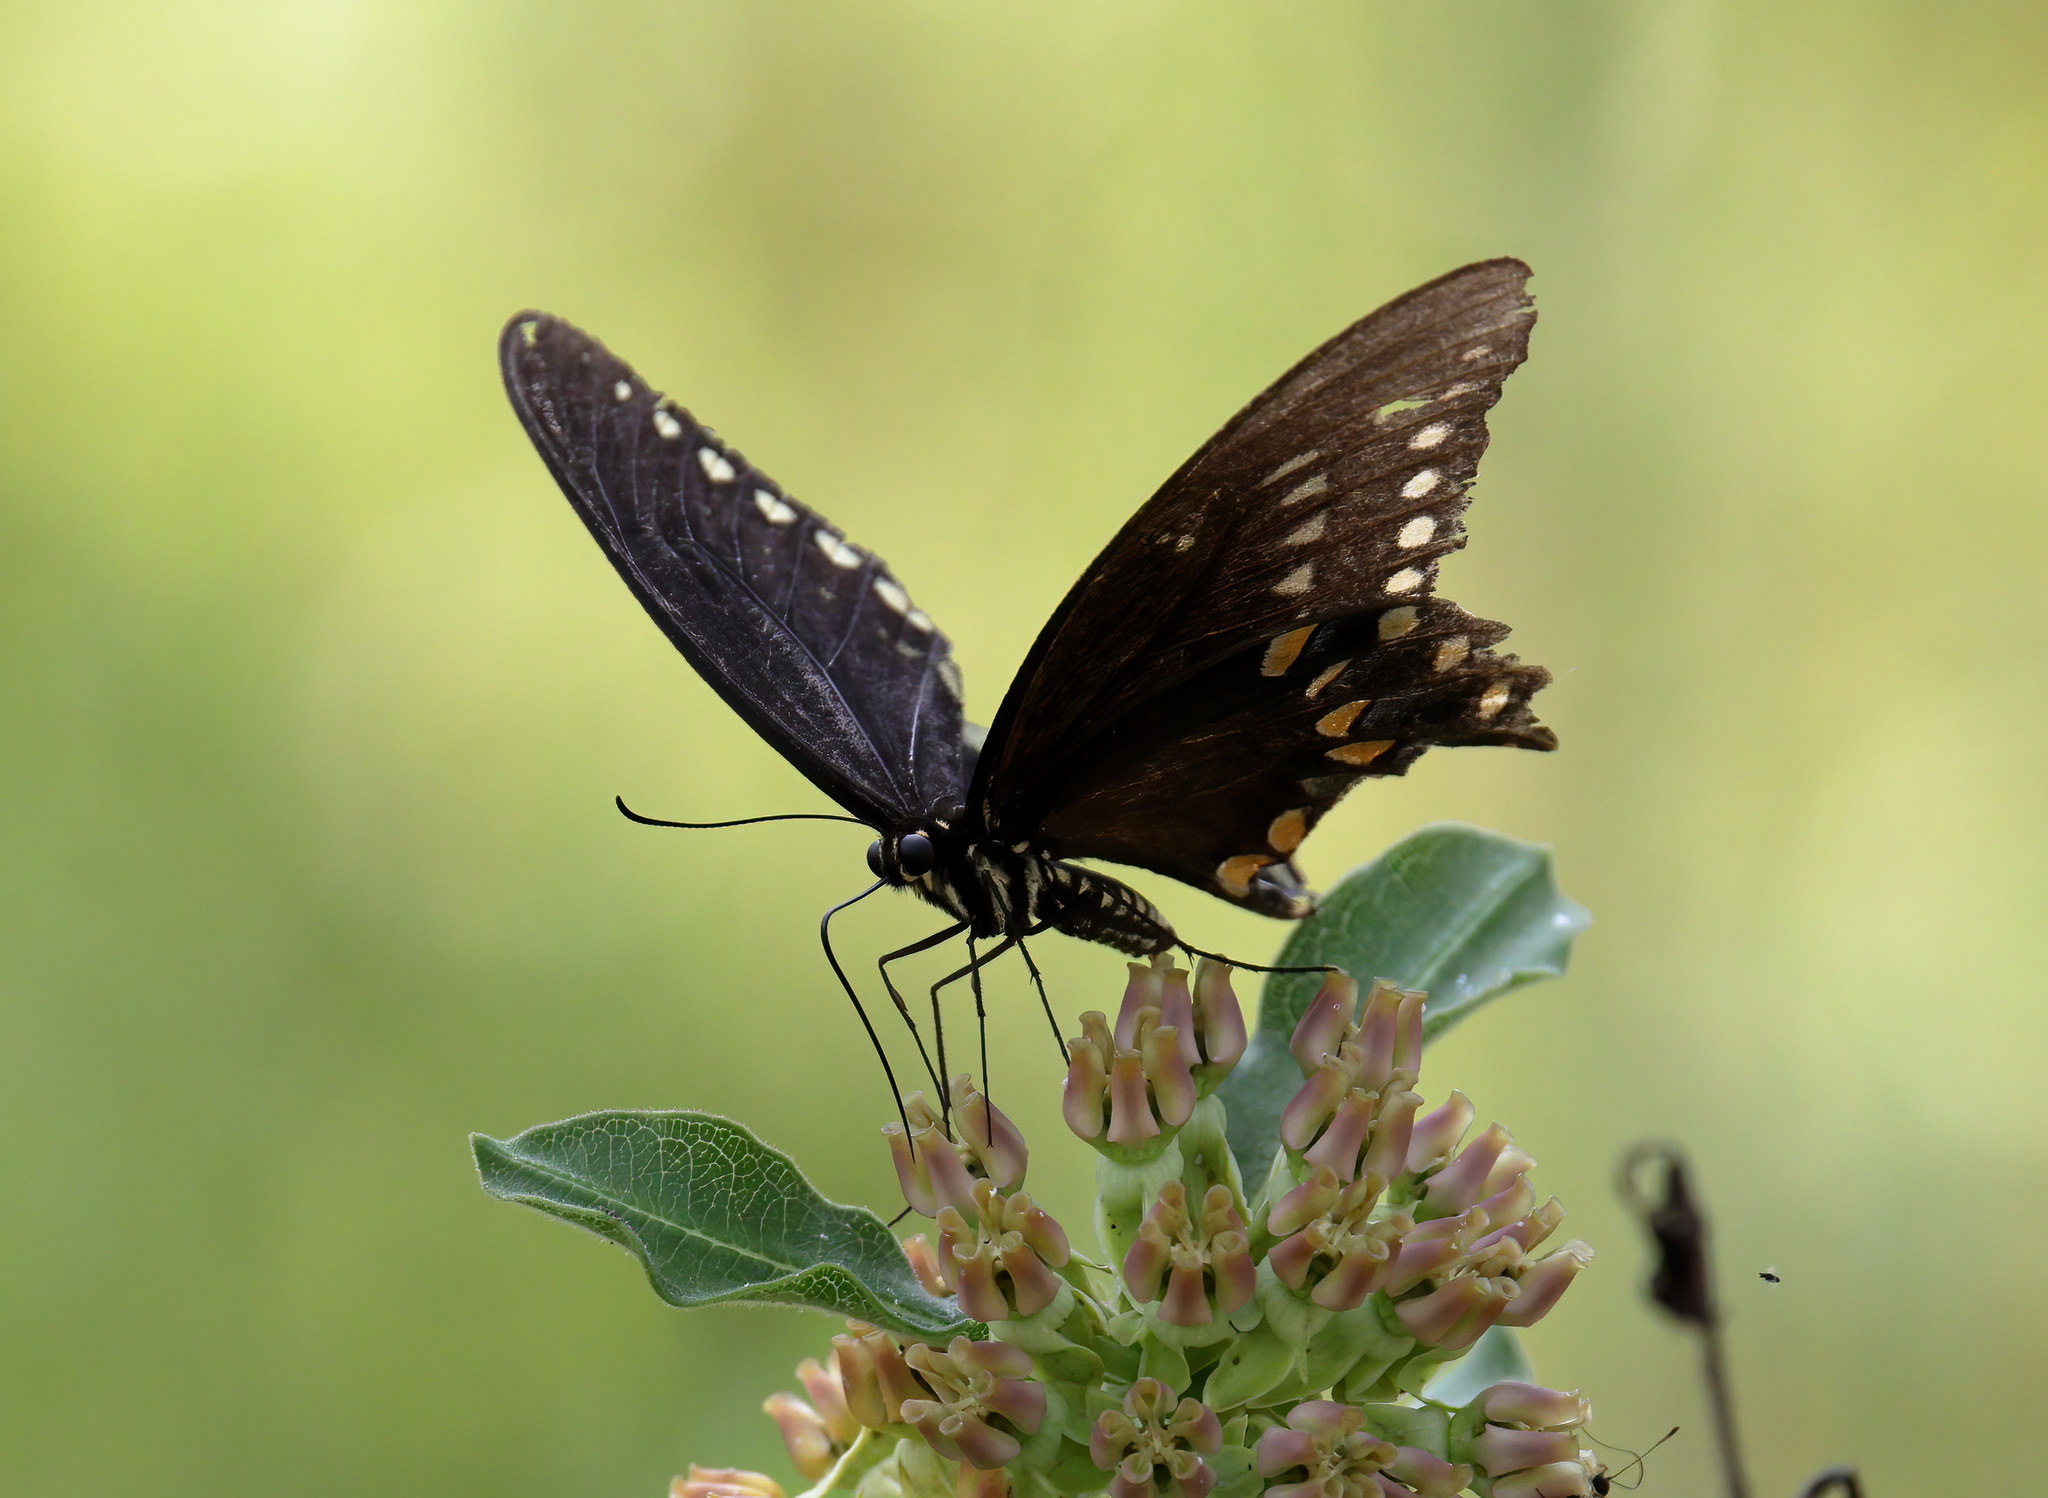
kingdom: Animalia
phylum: Arthropoda
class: Insecta
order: Lepidoptera
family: Papilionidae
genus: Papilio
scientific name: Papilio troilus
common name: Spicebush swallowtail
